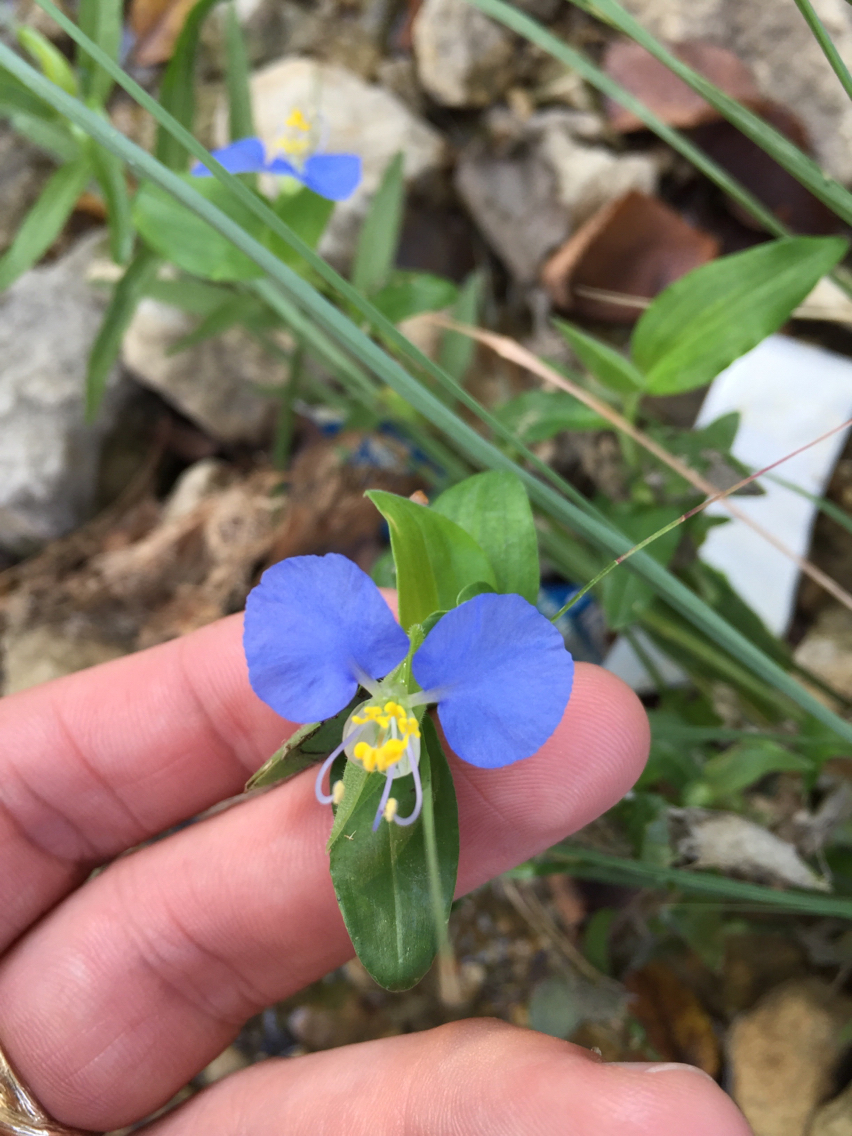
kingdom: Plantae
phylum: Tracheophyta
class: Liliopsida
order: Commelinales
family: Commelinaceae
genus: Commelina
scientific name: Commelina erecta
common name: Blousel blommetjie
